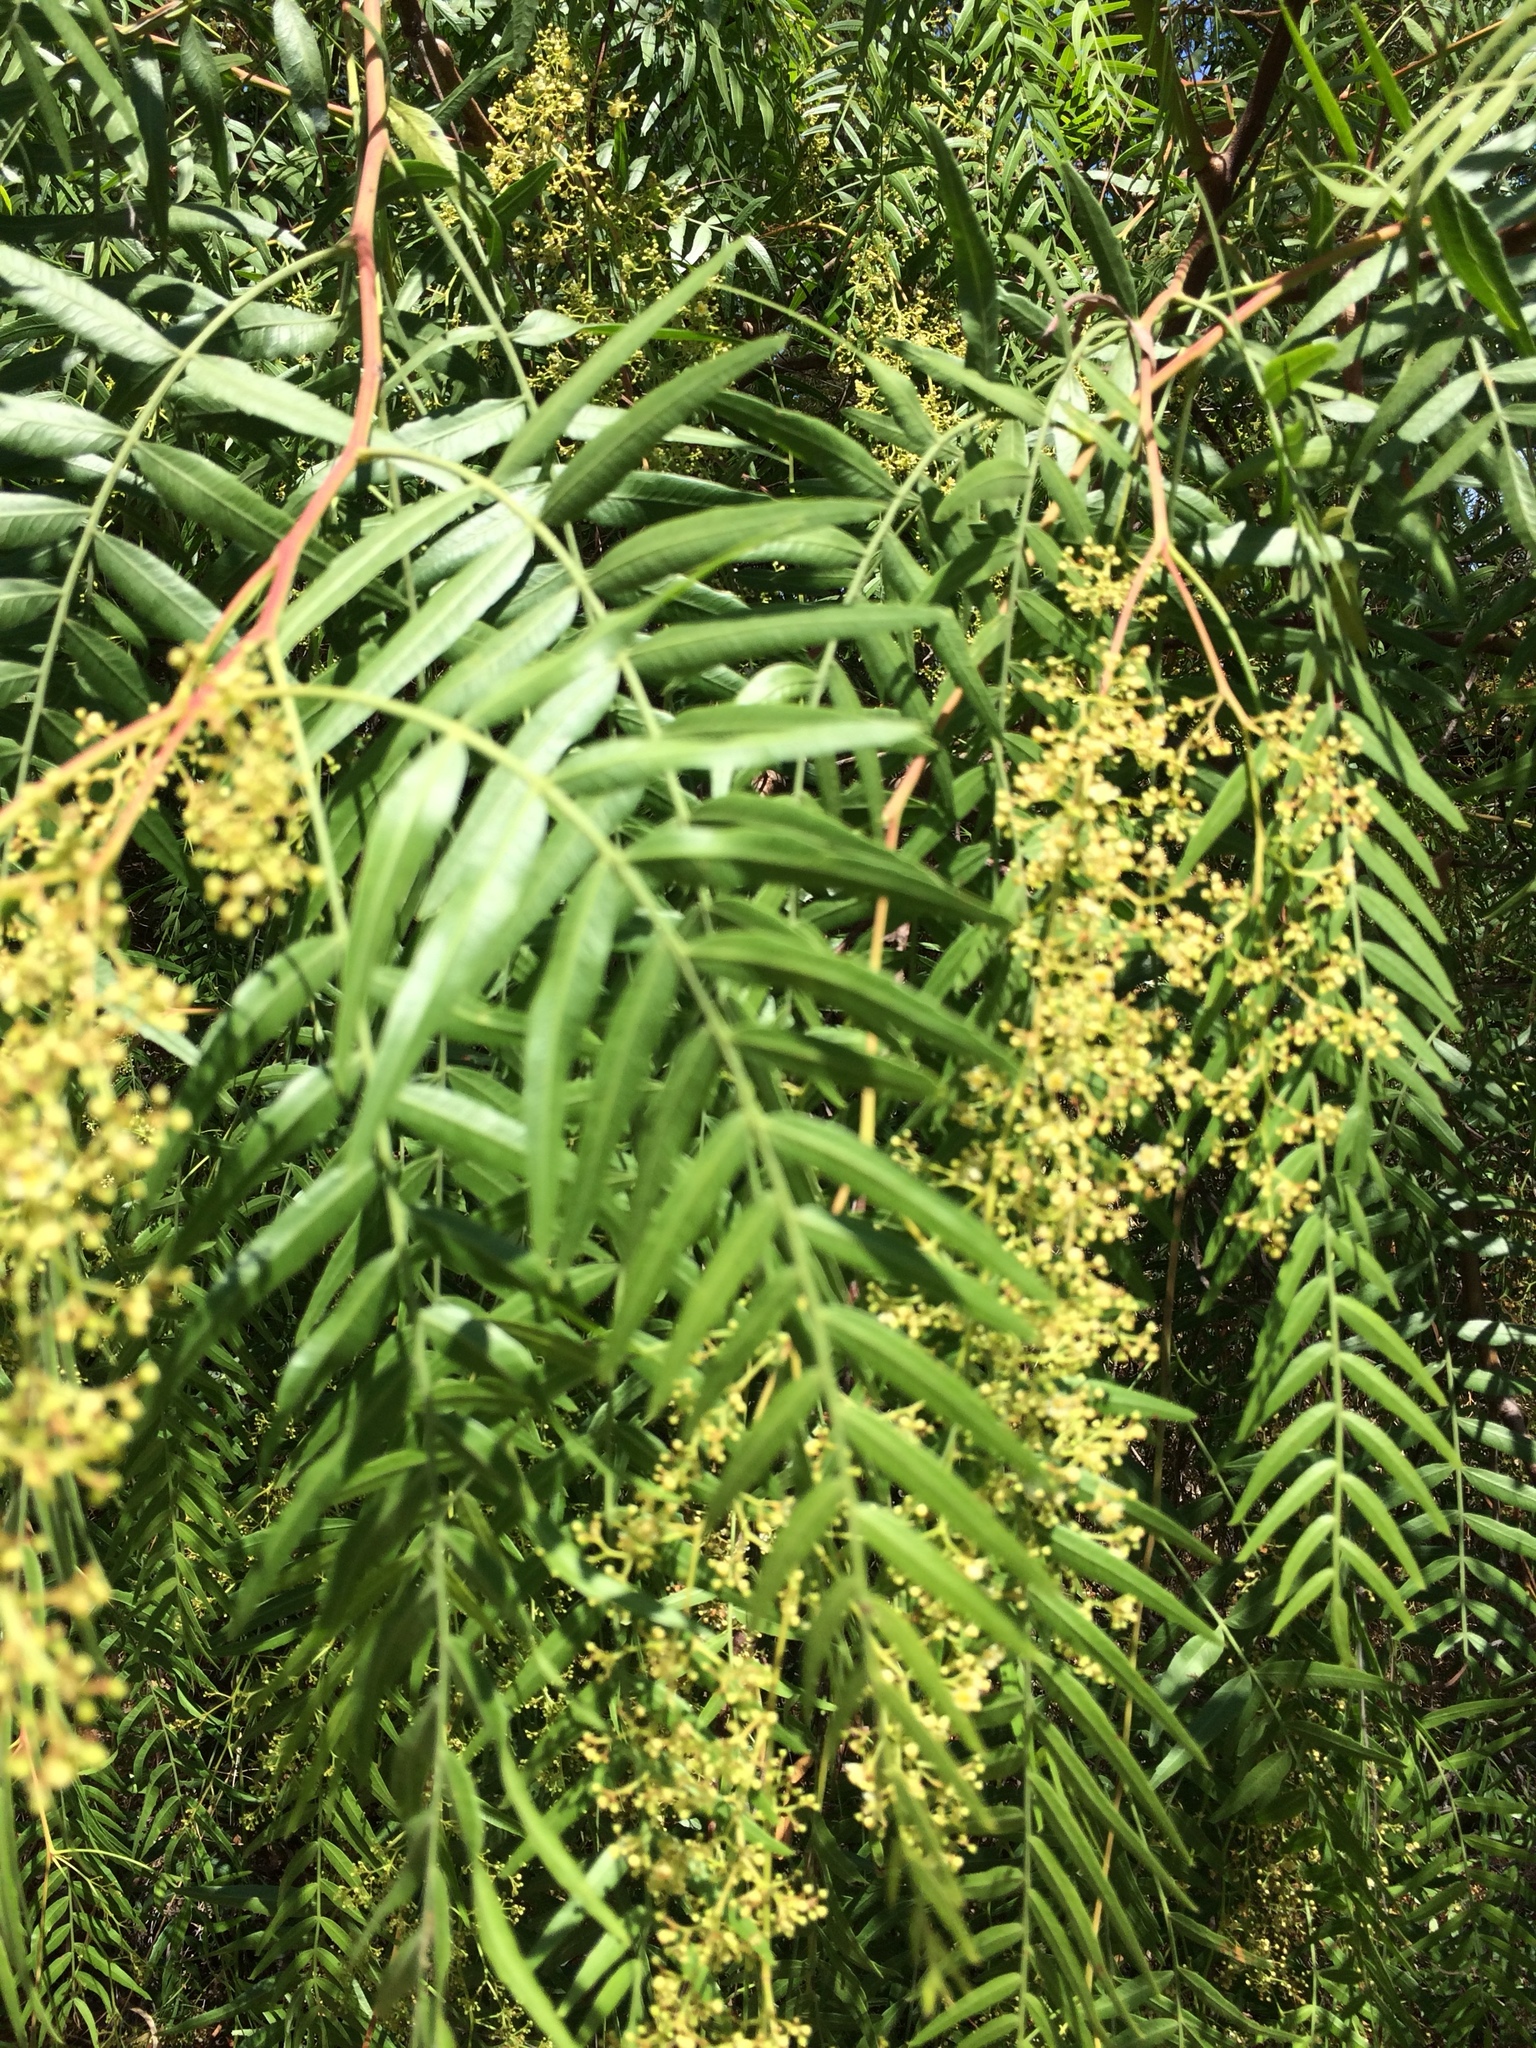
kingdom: Plantae
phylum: Tracheophyta
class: Magnoliopsida
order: Sapindales
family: Anacardiaceae
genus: Schinus
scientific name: Schinus molle
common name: Peruvian peppertree
